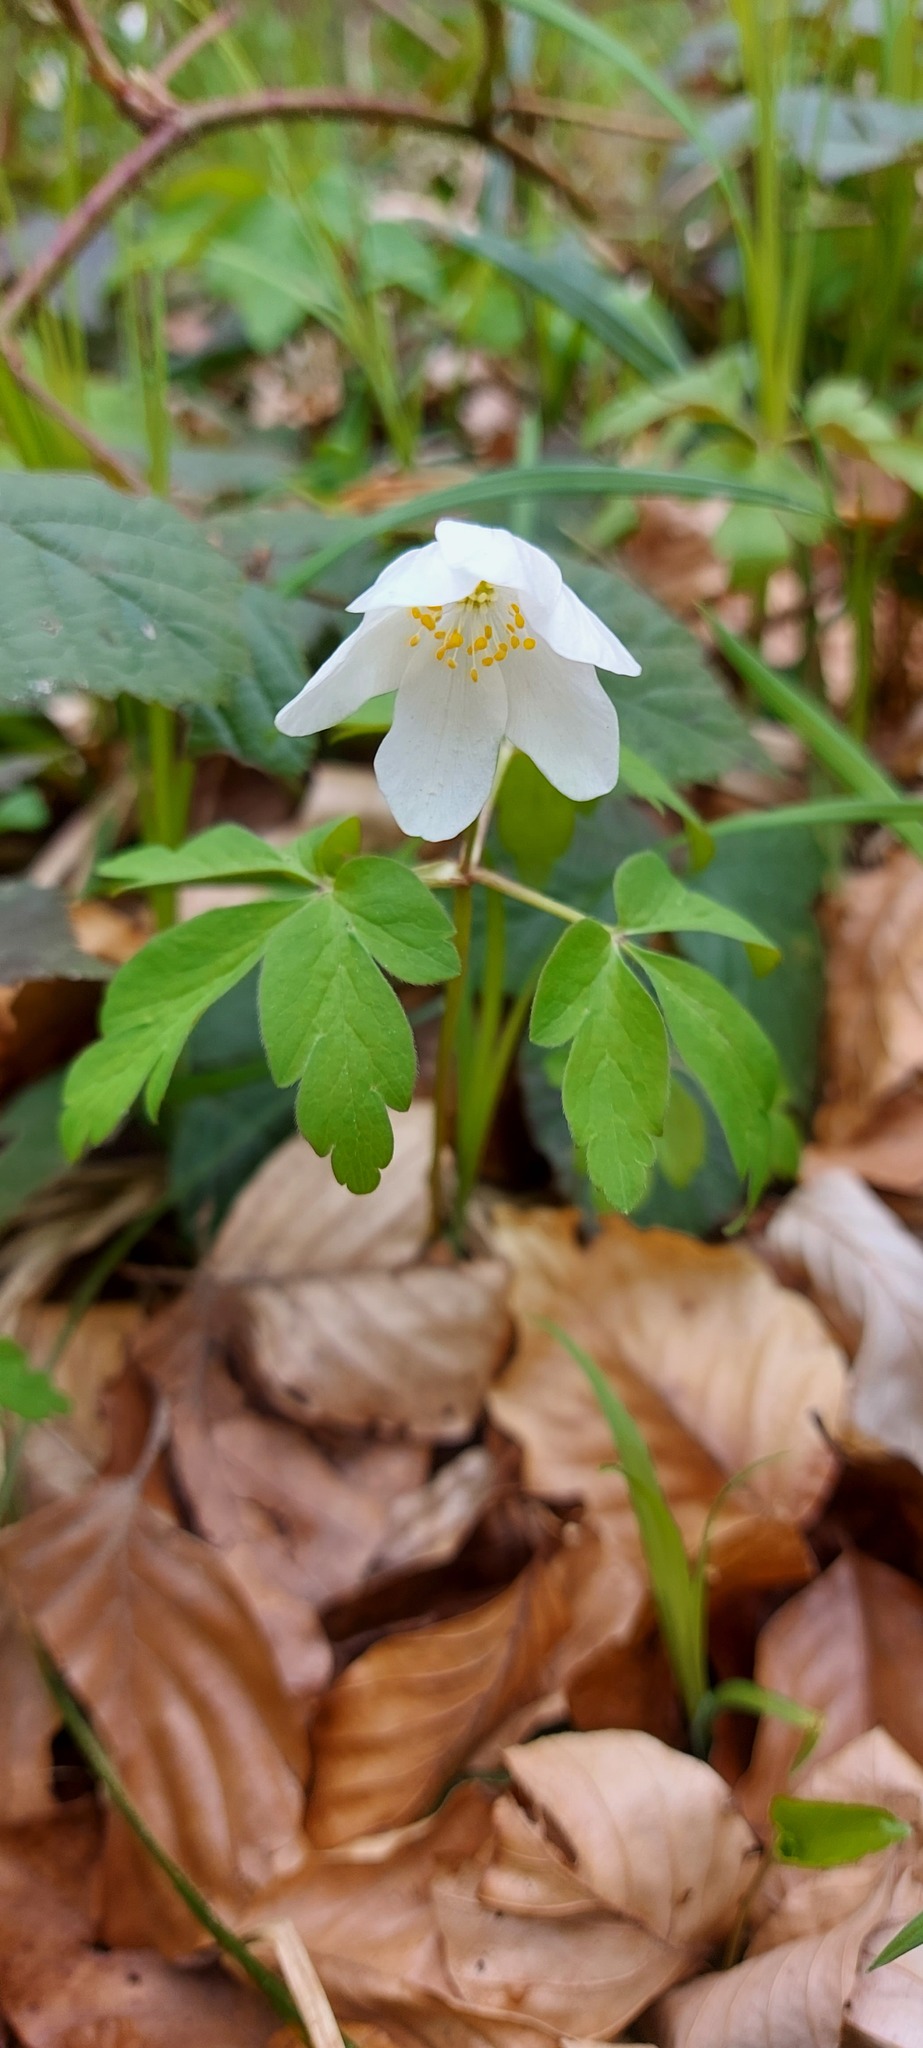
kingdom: Plantae
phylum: Tracheophyta
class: Magnoliopsida
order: Ranunculales
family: Ranunculaceae
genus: Anemone
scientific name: Anemone nemorosa
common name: Wood anemone
